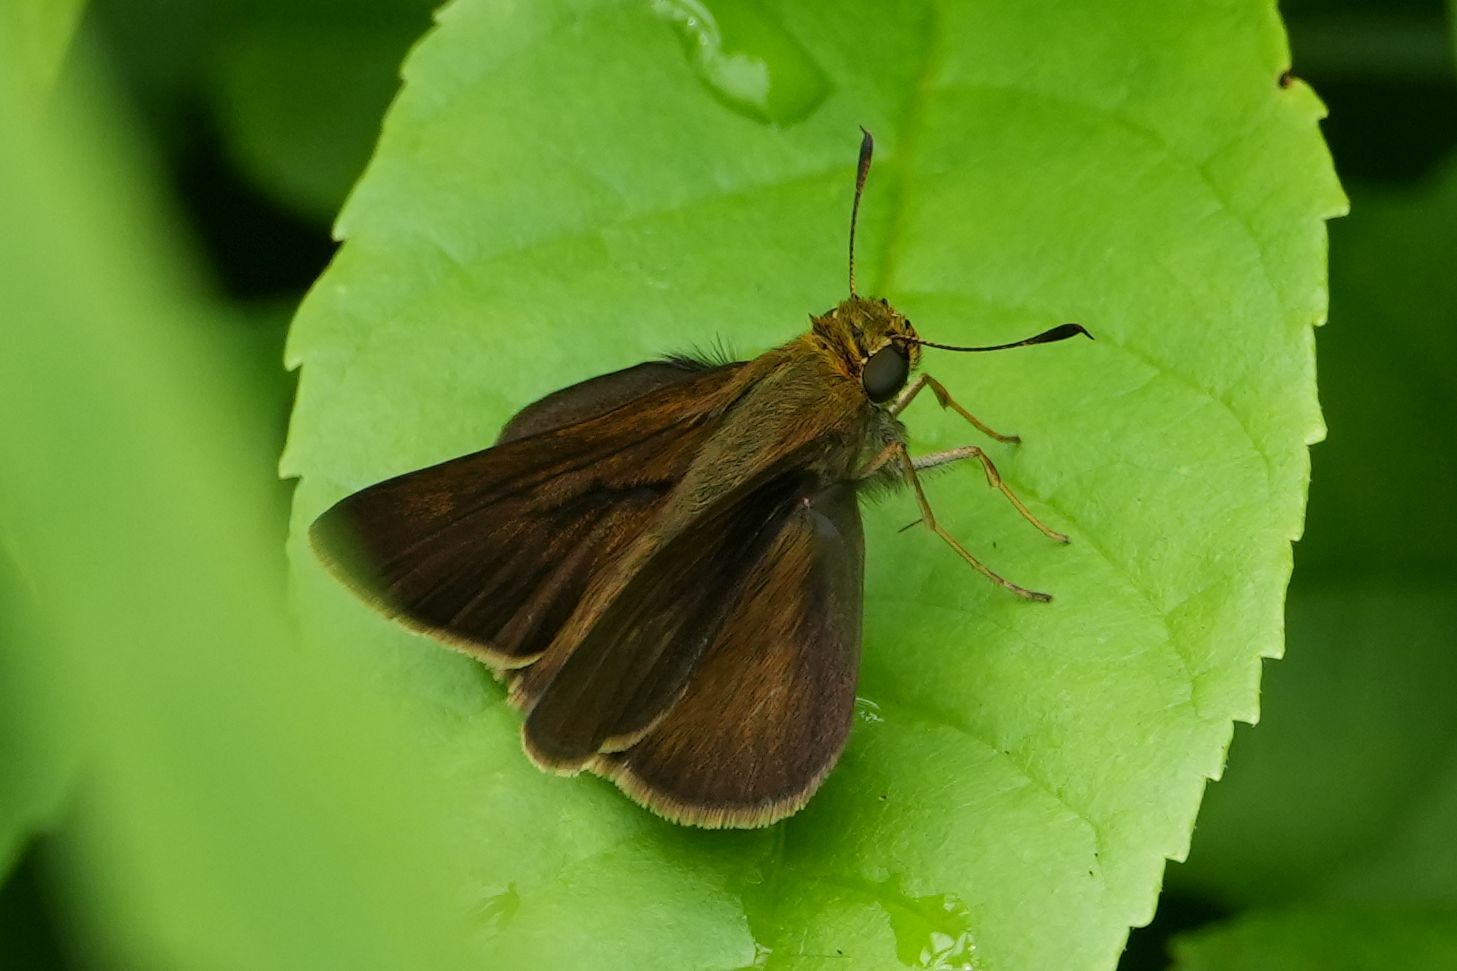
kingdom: Animalia
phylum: Arthropoda
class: Insecta
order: Lepidoptera
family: Hesperiidae
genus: Euphyes
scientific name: Euphyes vestris
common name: Dun skipper
